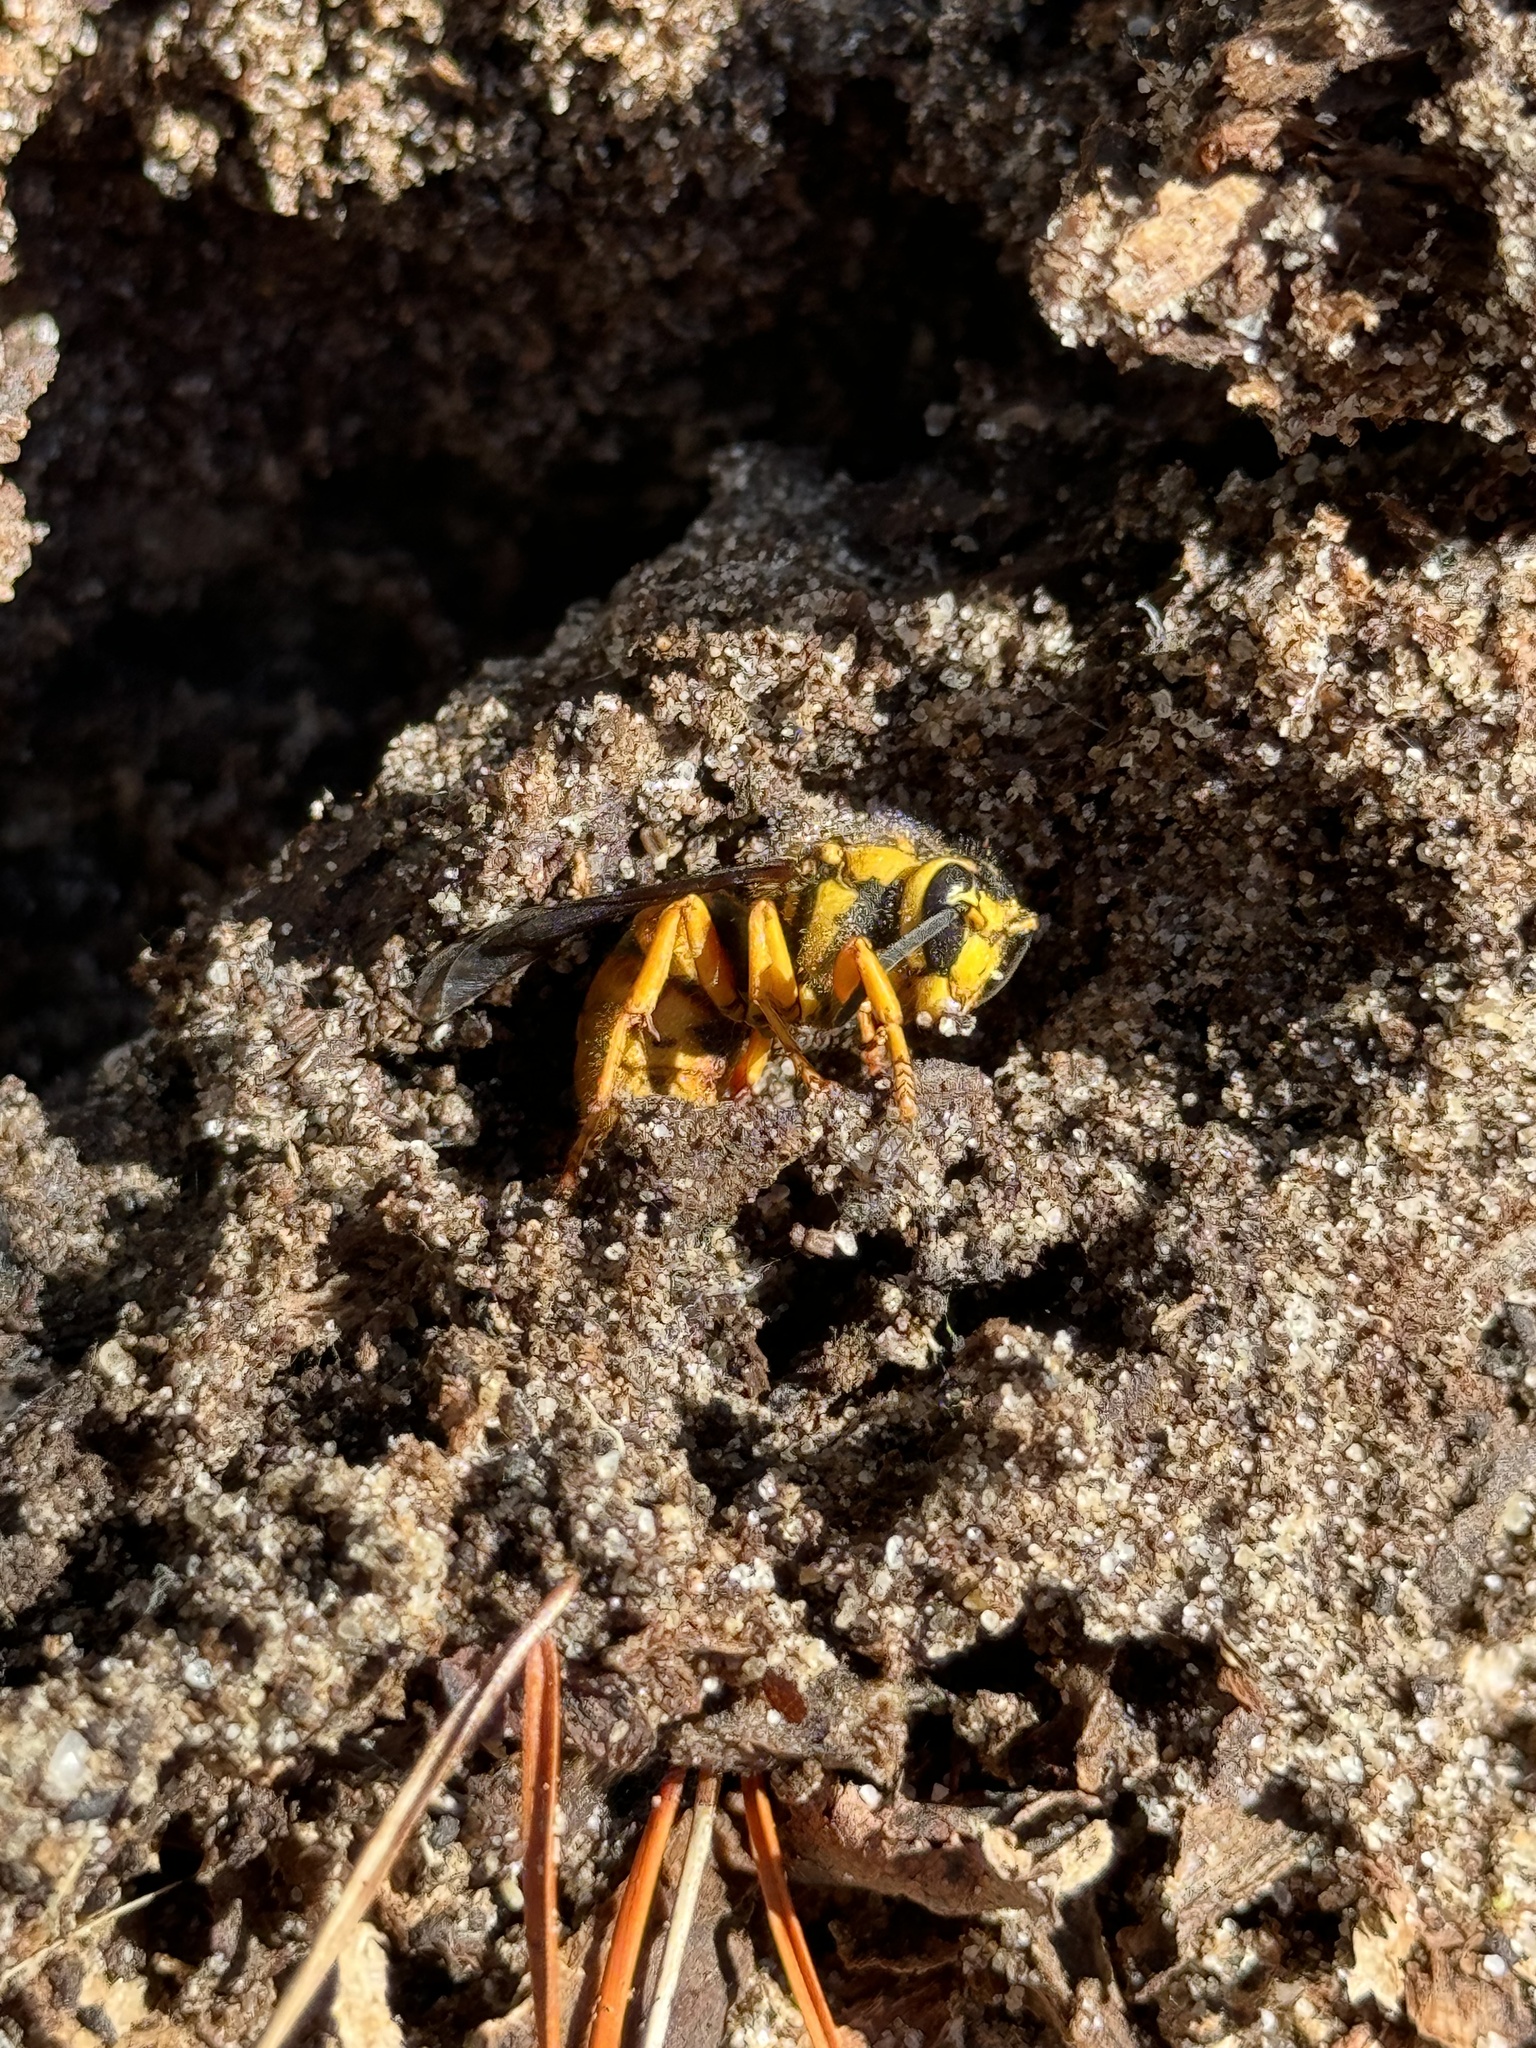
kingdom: Animalia
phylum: Arthropoda
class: Insecta
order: Hymenoptera
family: Vespidae
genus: Vespula
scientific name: Vespula squamosa
